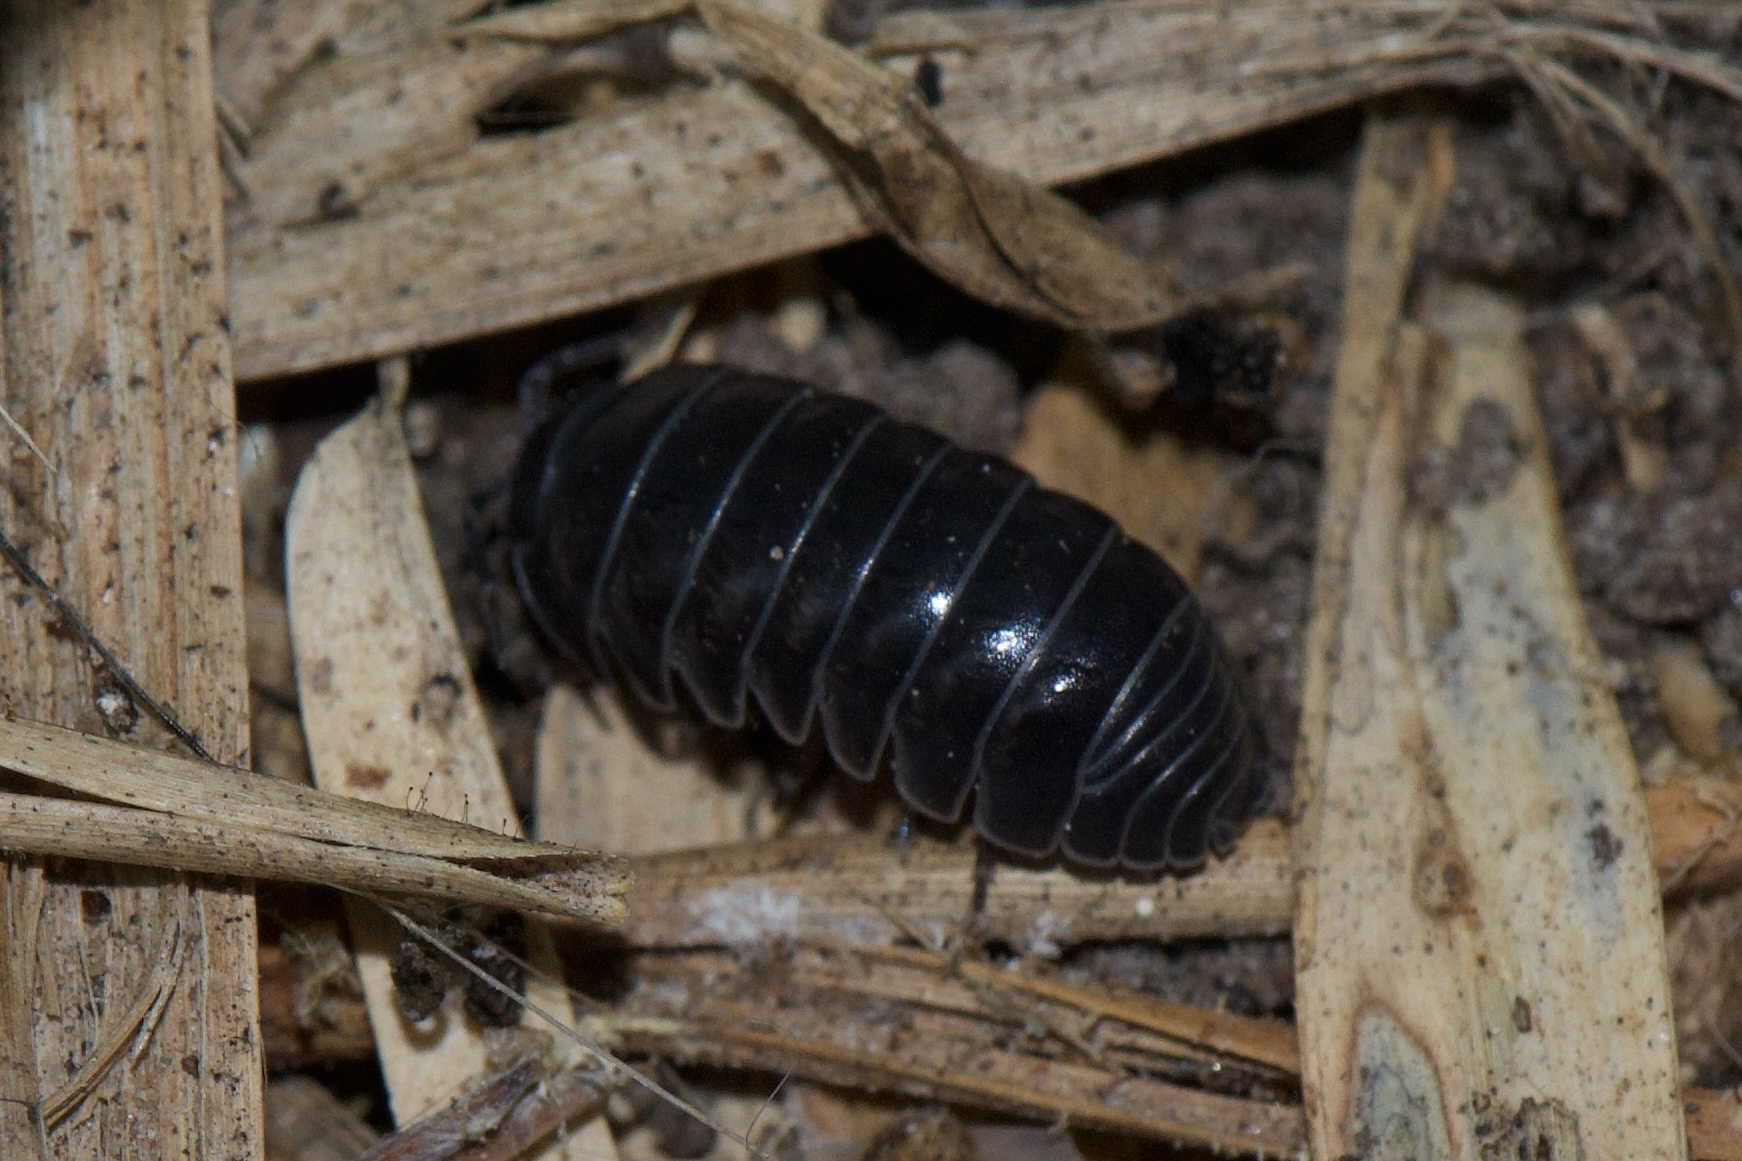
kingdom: Animalia
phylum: Arthropoda
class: Malacostraca
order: Isopoda
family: Armadillidiidae
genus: Armadillidium
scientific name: Armadillidium vulgare
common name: Common pill woodlouse
